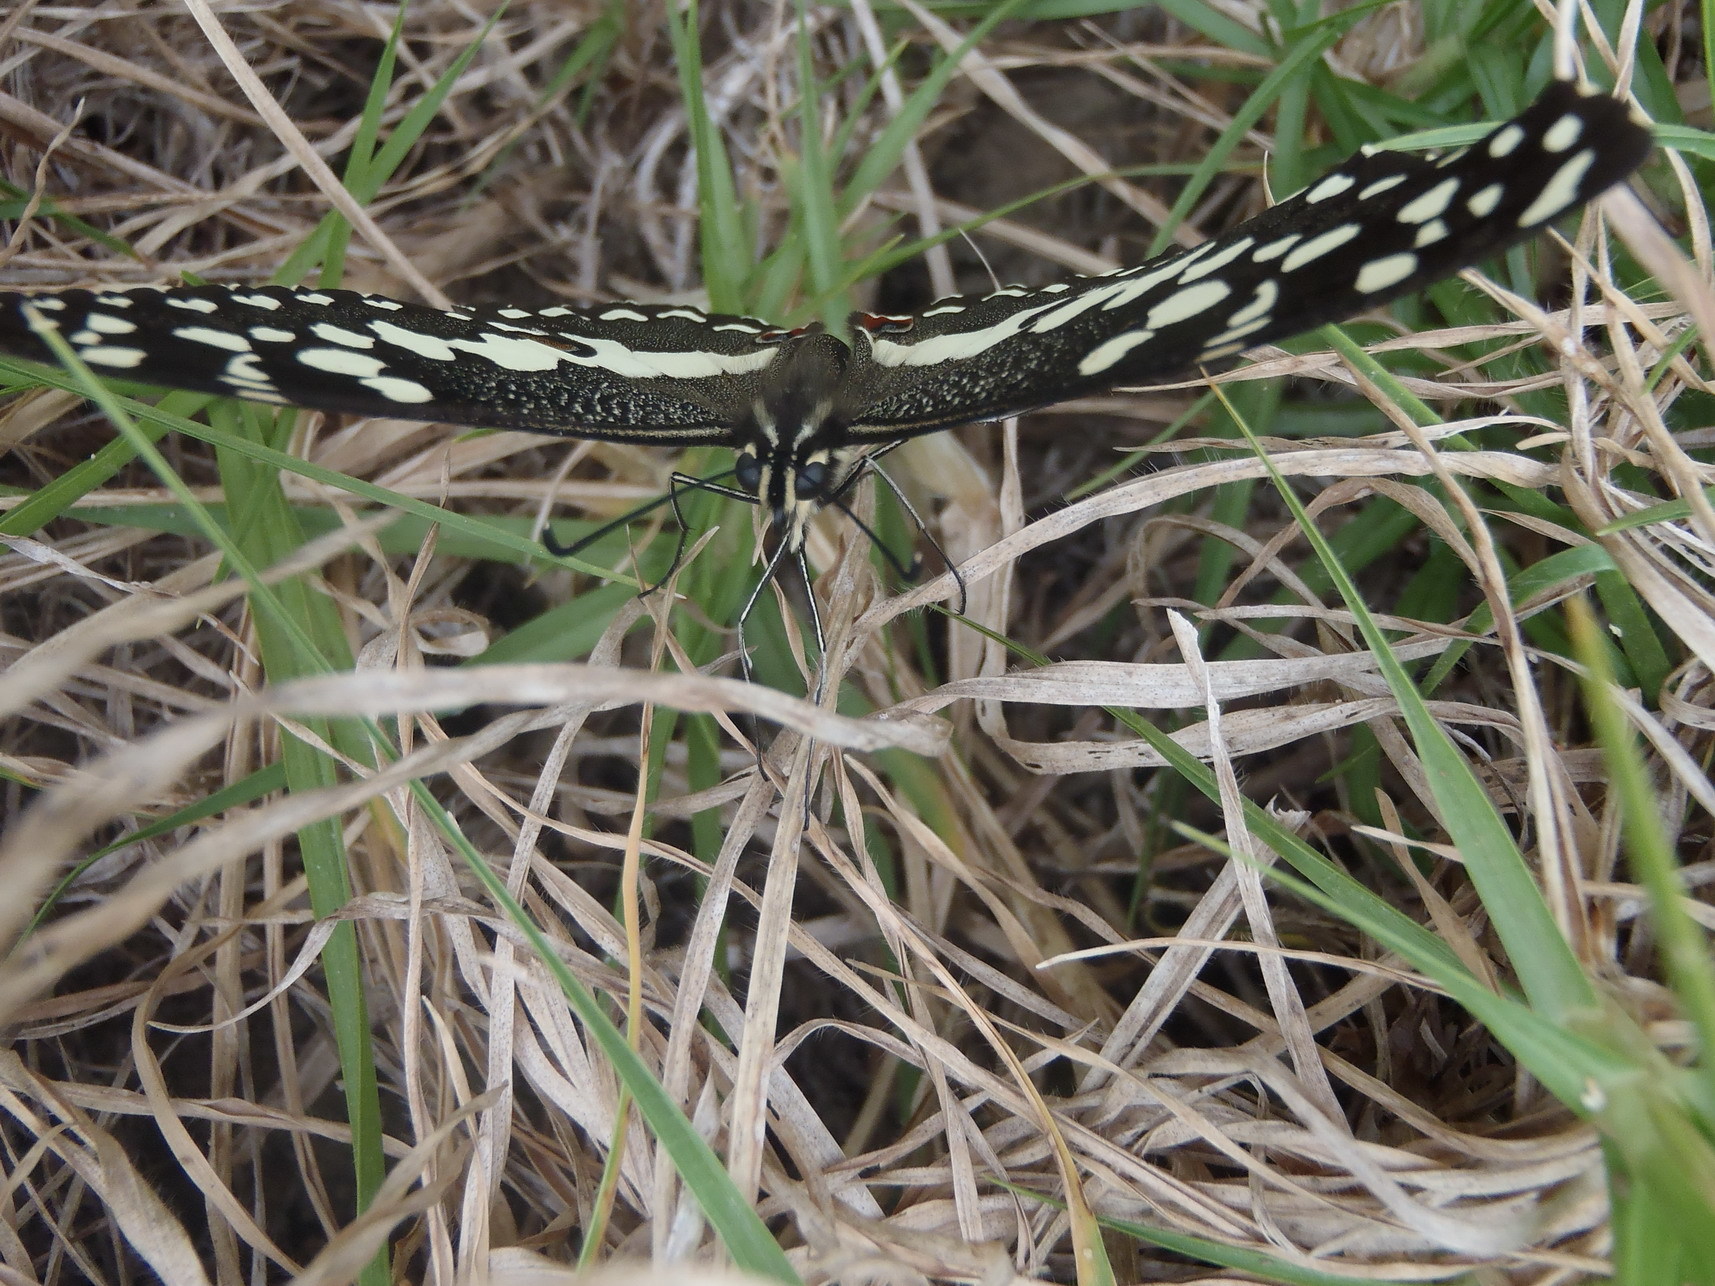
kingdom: Animalia
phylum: Arthropoda
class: Insecta
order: Lepidoptera
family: Papilionidae
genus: Papilio
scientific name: Papilio demodocus
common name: Christmas butterfly
